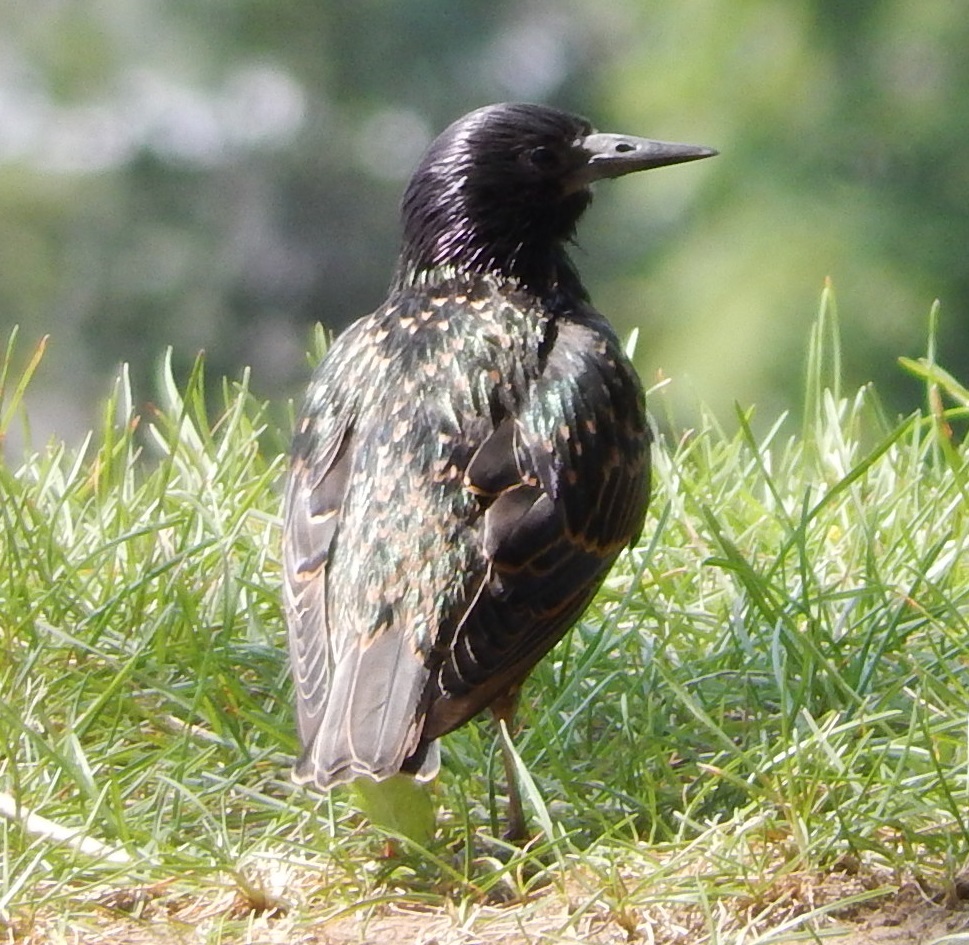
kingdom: Animalia
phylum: Chordata
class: Aves
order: Passeriformes
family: Sturnidae
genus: Sturnus
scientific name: Sturnus vulgaris
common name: Common starling
